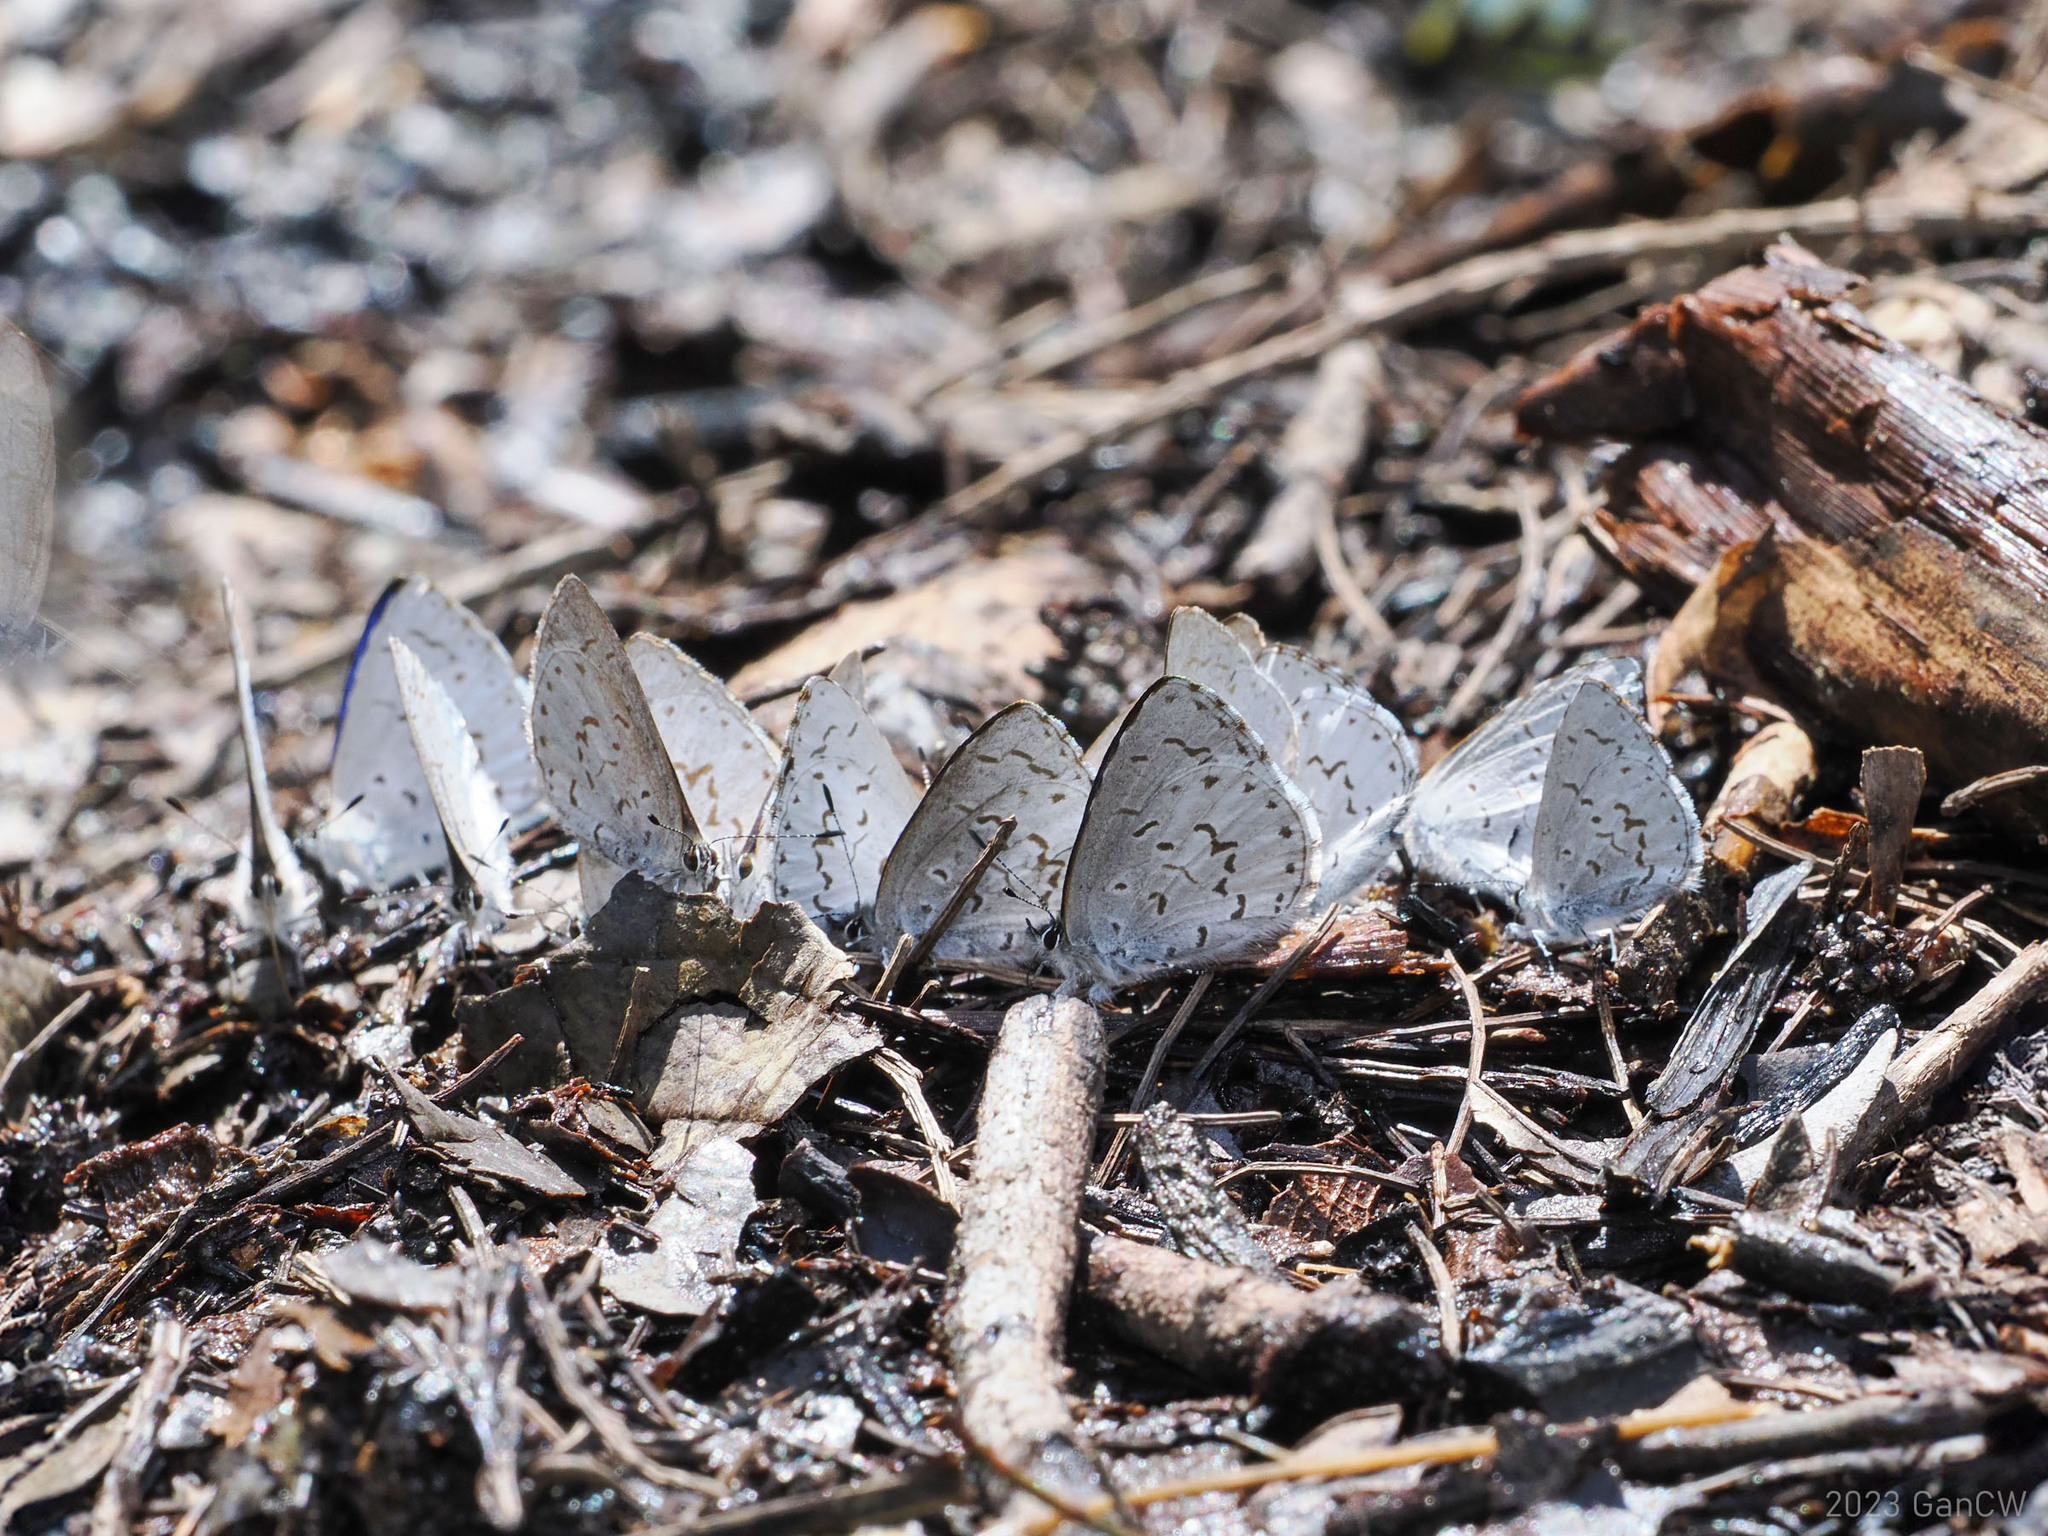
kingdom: Animalia
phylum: Arthropoda
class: Insecta
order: Lepidoptera
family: Lycaenidae
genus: Udara
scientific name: Udara drucei
